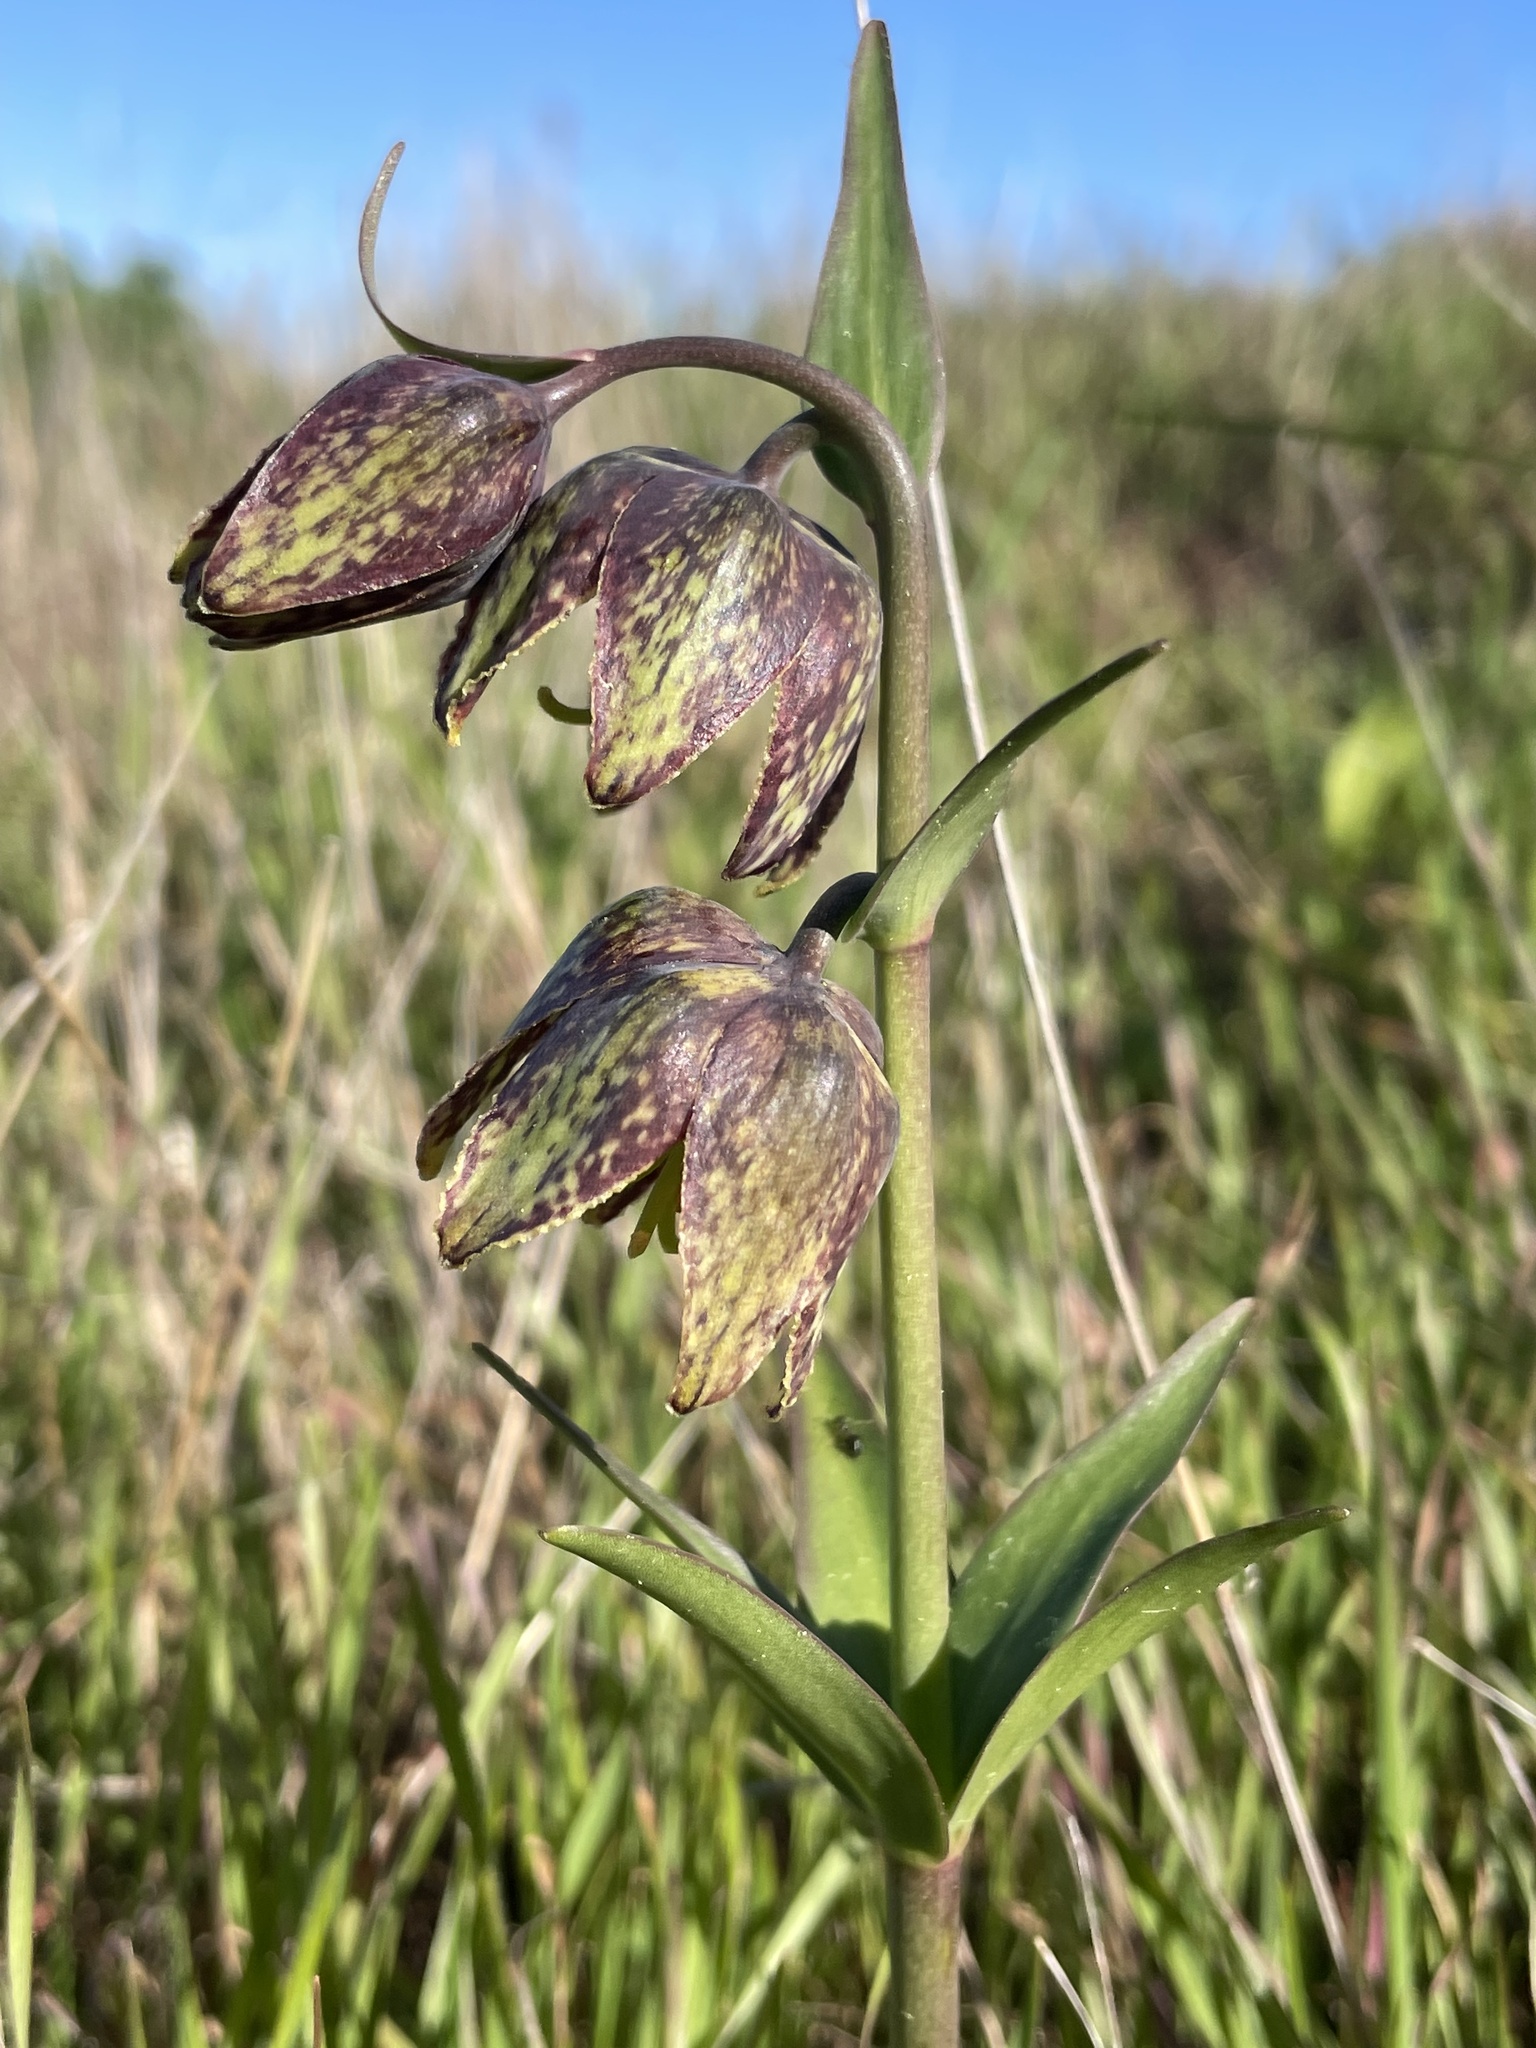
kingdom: Plantae
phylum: Tracheophyta
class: Liliopsida
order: Liliales
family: Liliaceae
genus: Fritillaria
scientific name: Fritillaria affinis
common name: Ojai fritillary
